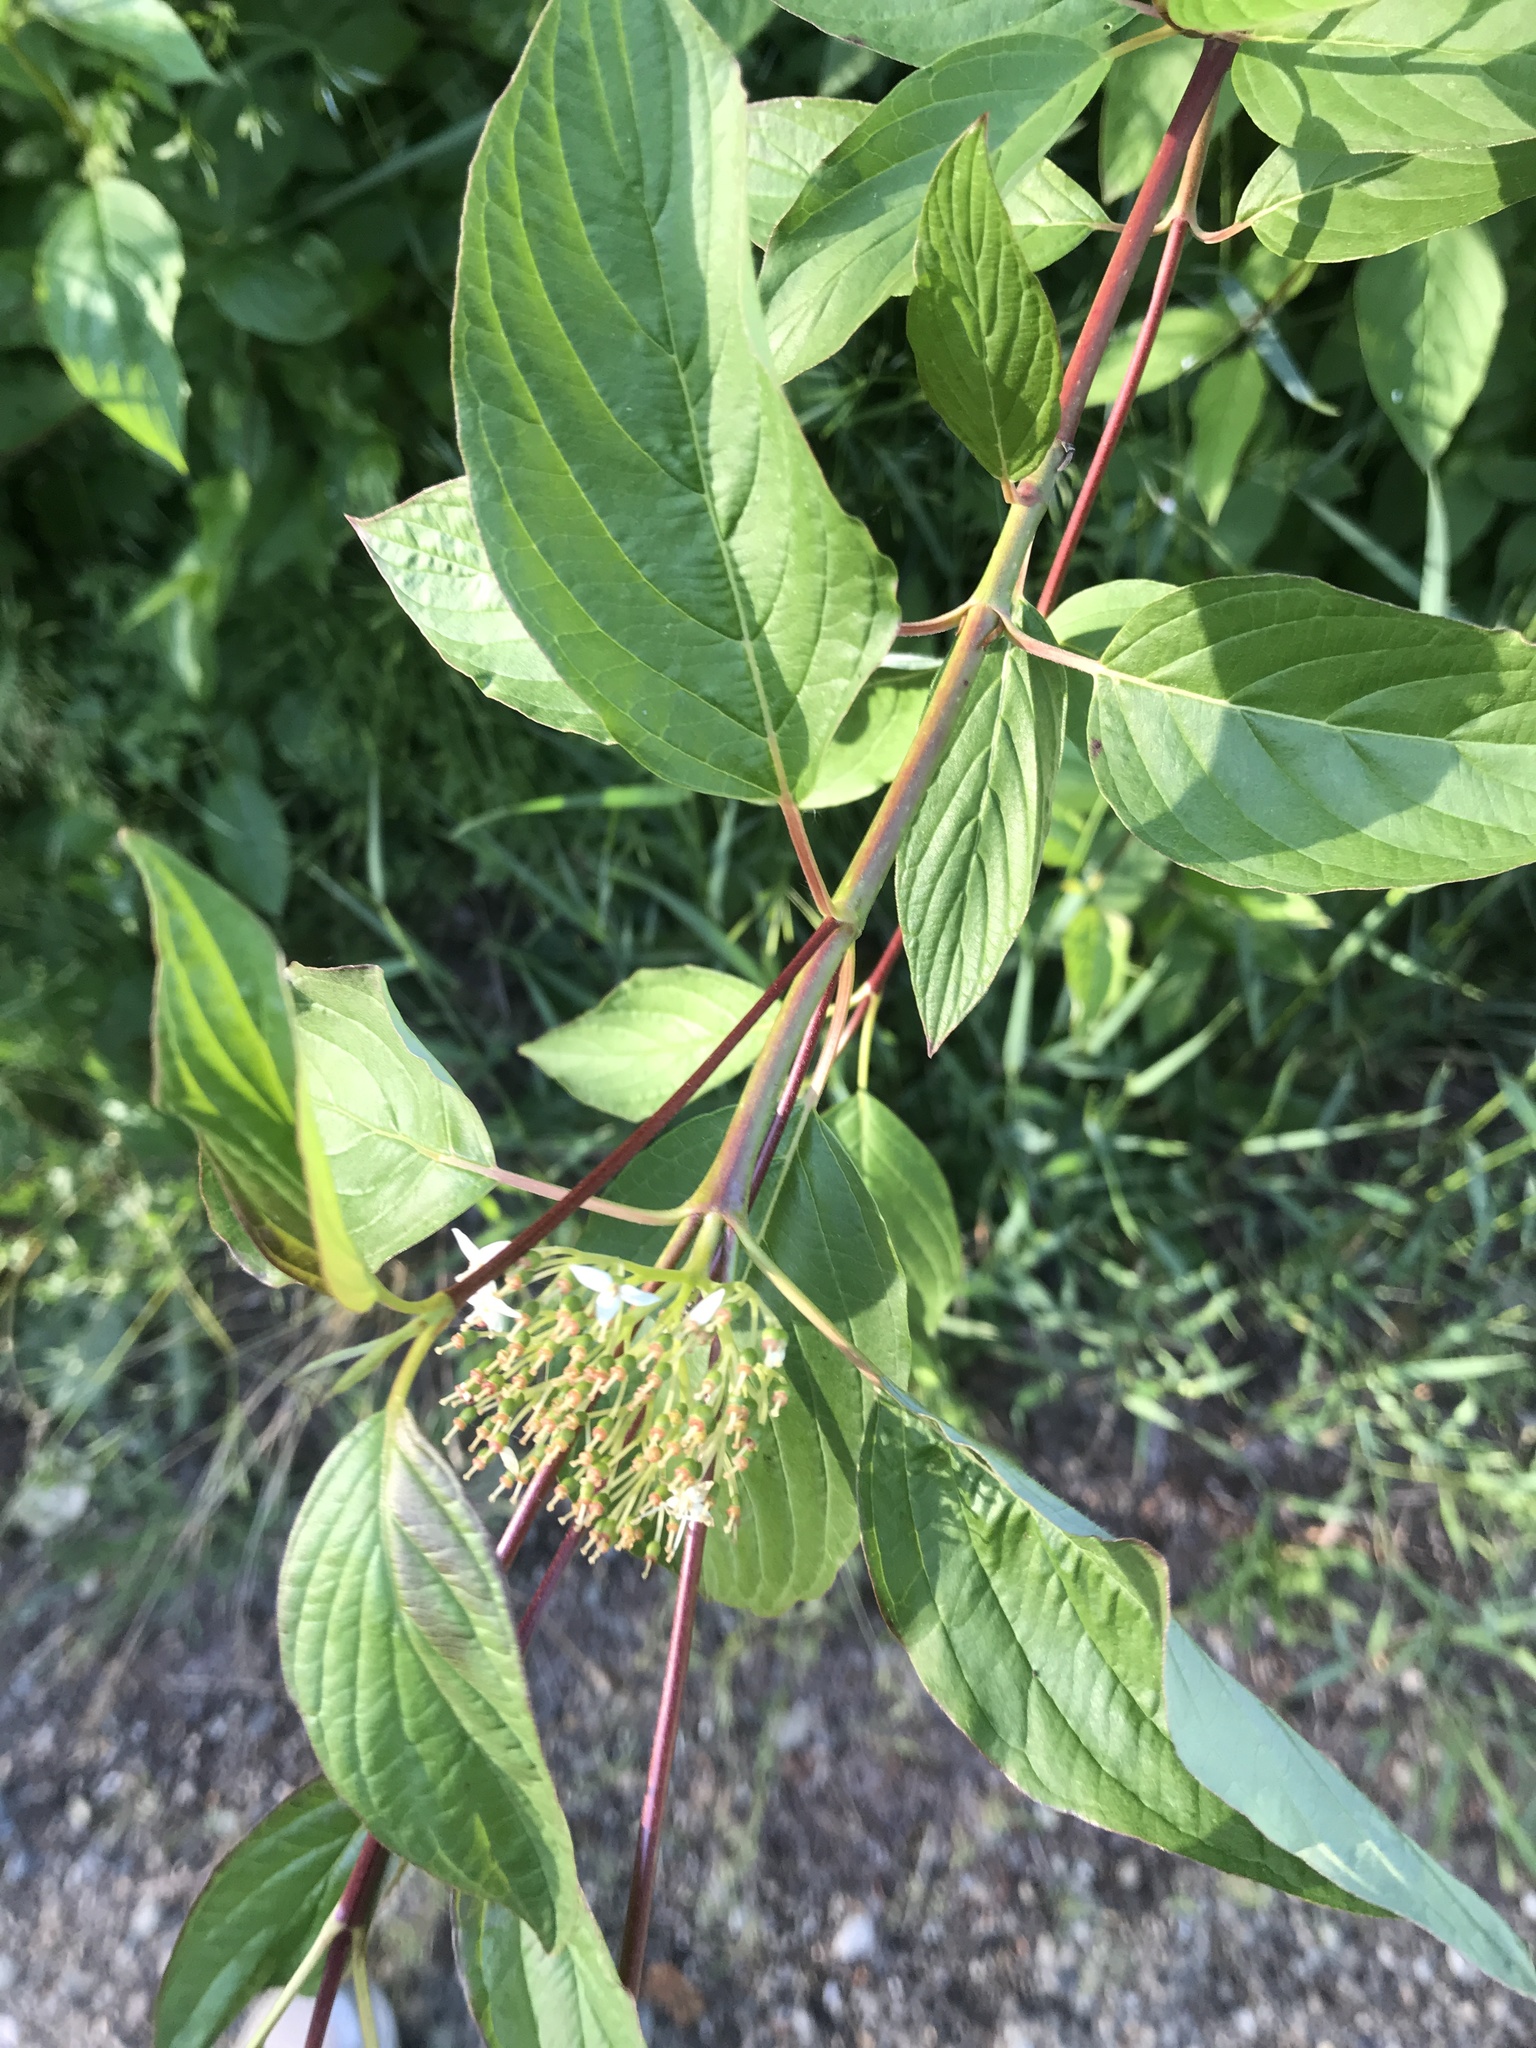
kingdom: Plantae
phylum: Tracheophyta
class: Magnoliopsida
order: Cornales
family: Cornaceae
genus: Cornus
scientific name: Cornus sericea
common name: Red-osier dogwood
